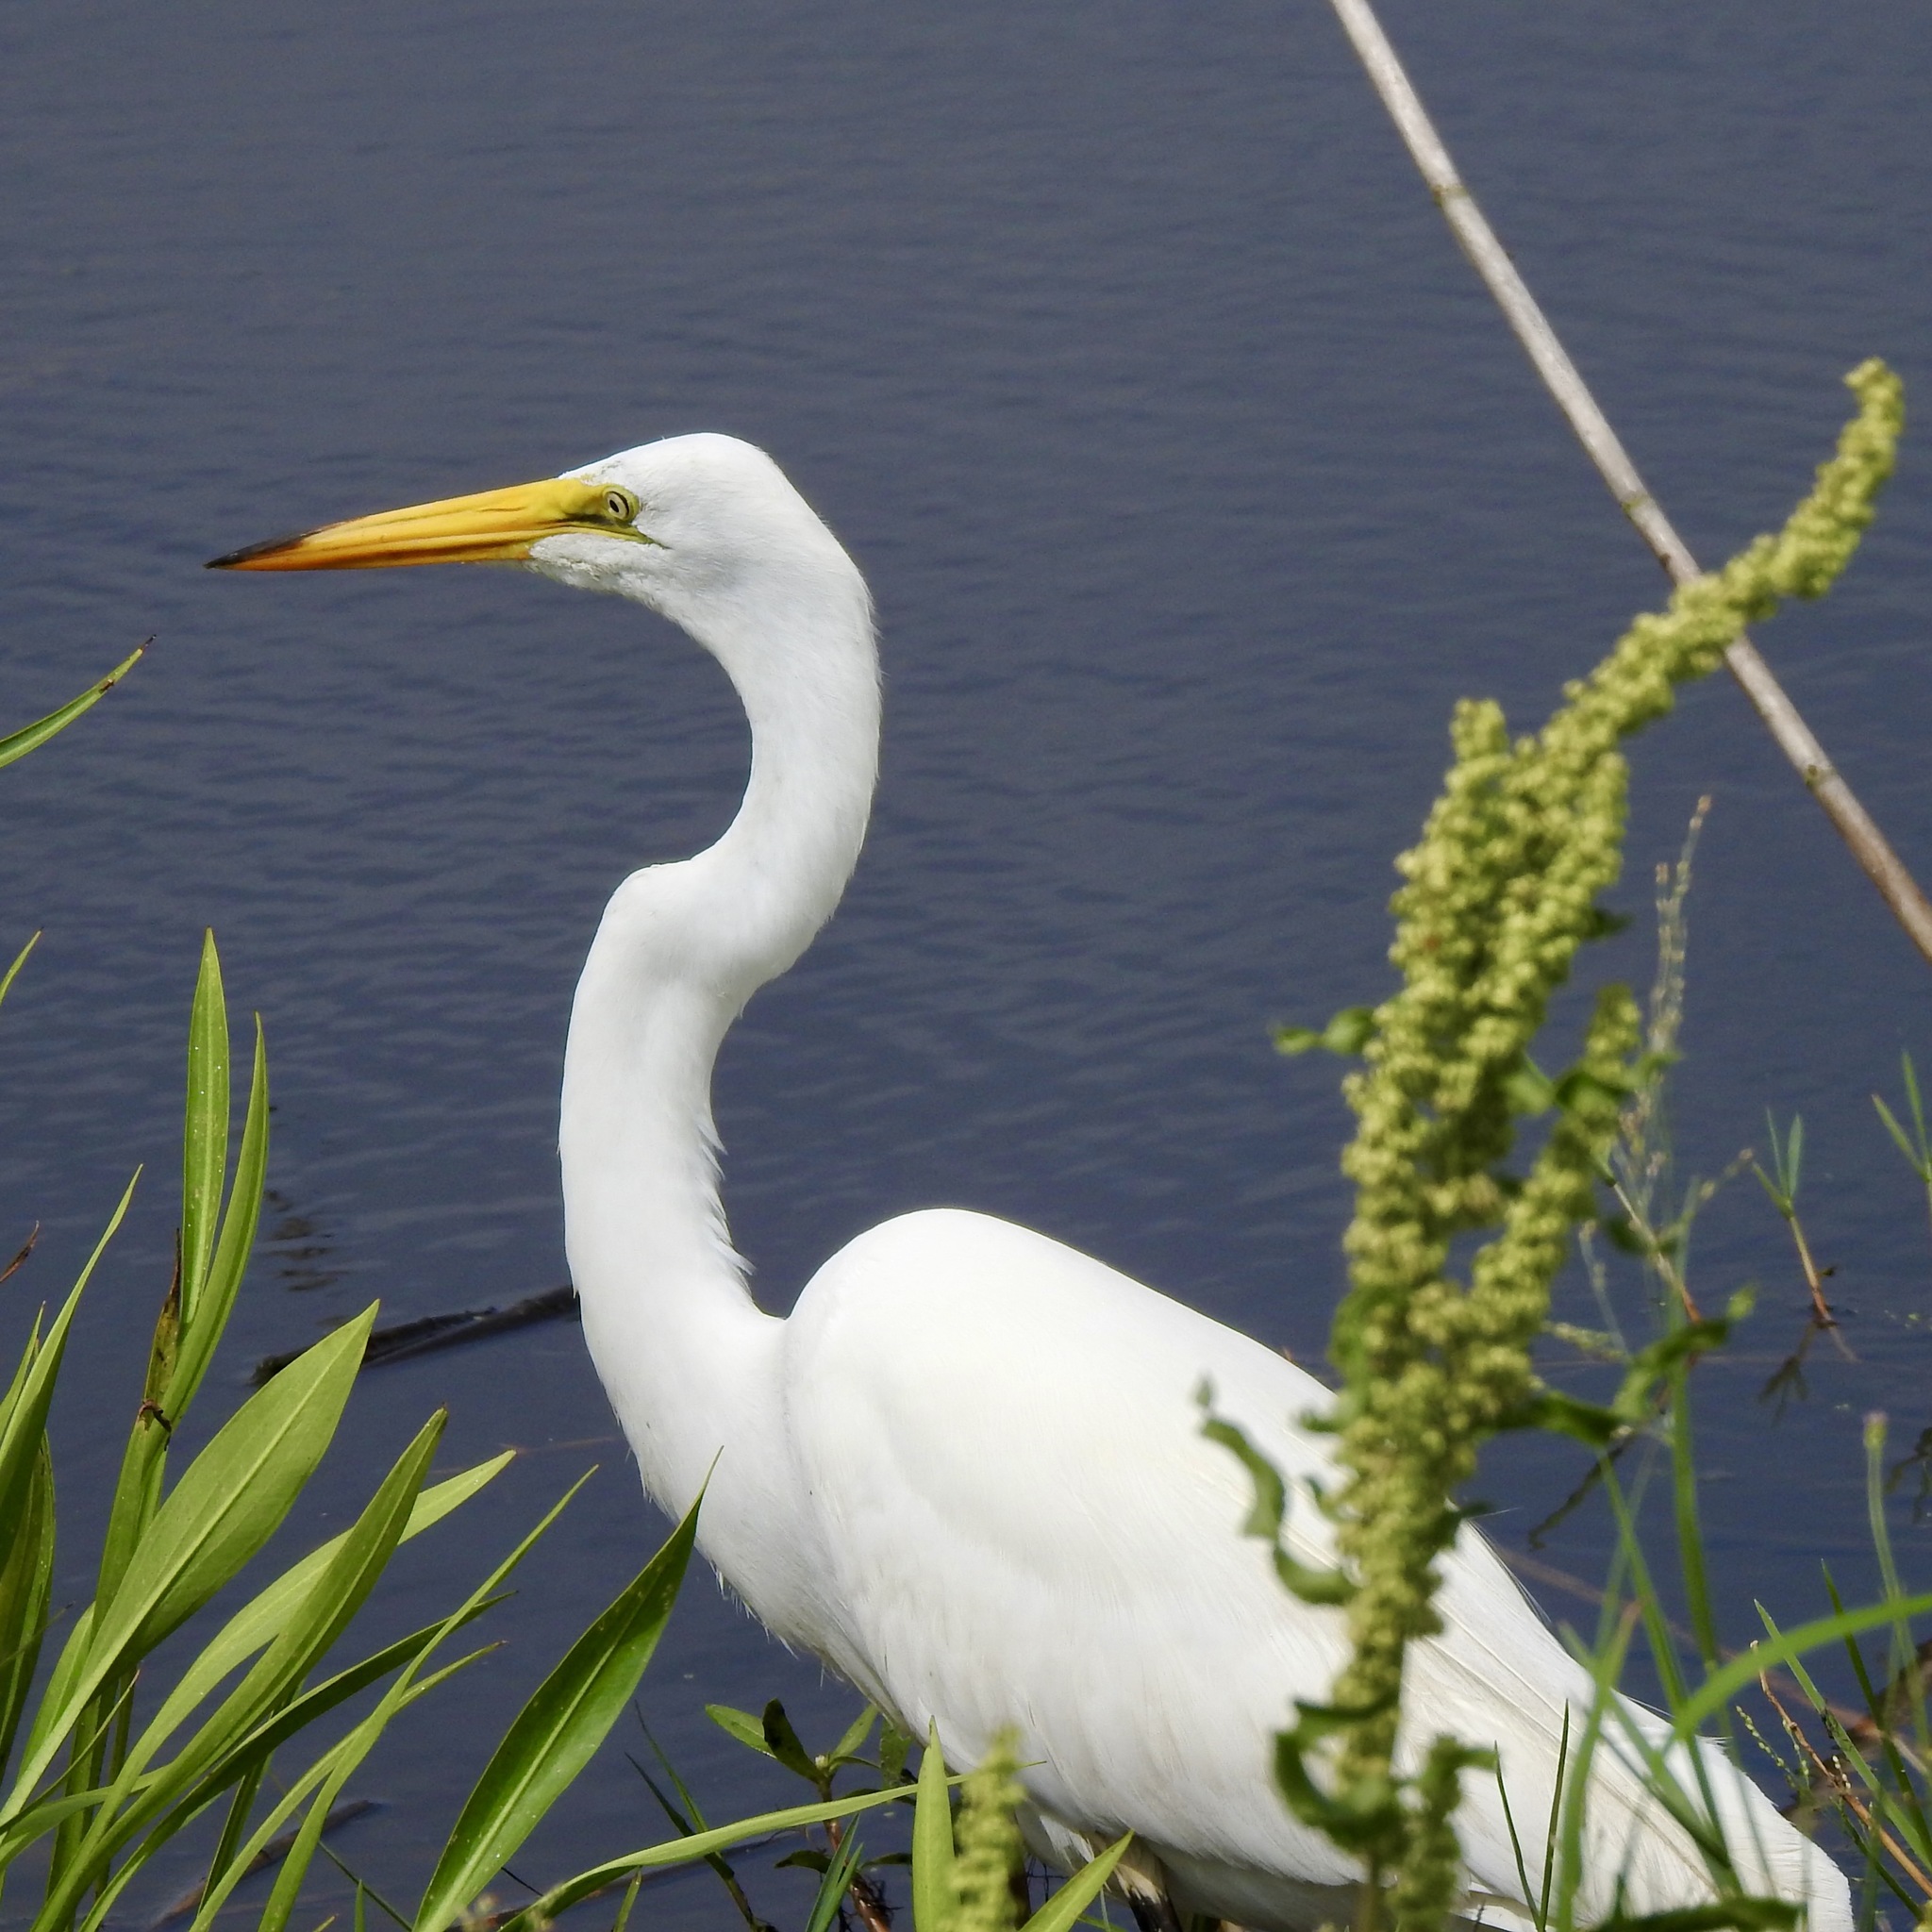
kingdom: Animalia
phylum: Chordata
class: Aves
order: Pelecaniformes
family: Ardeidae
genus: Ardea
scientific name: Ardea alba
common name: Great egret
